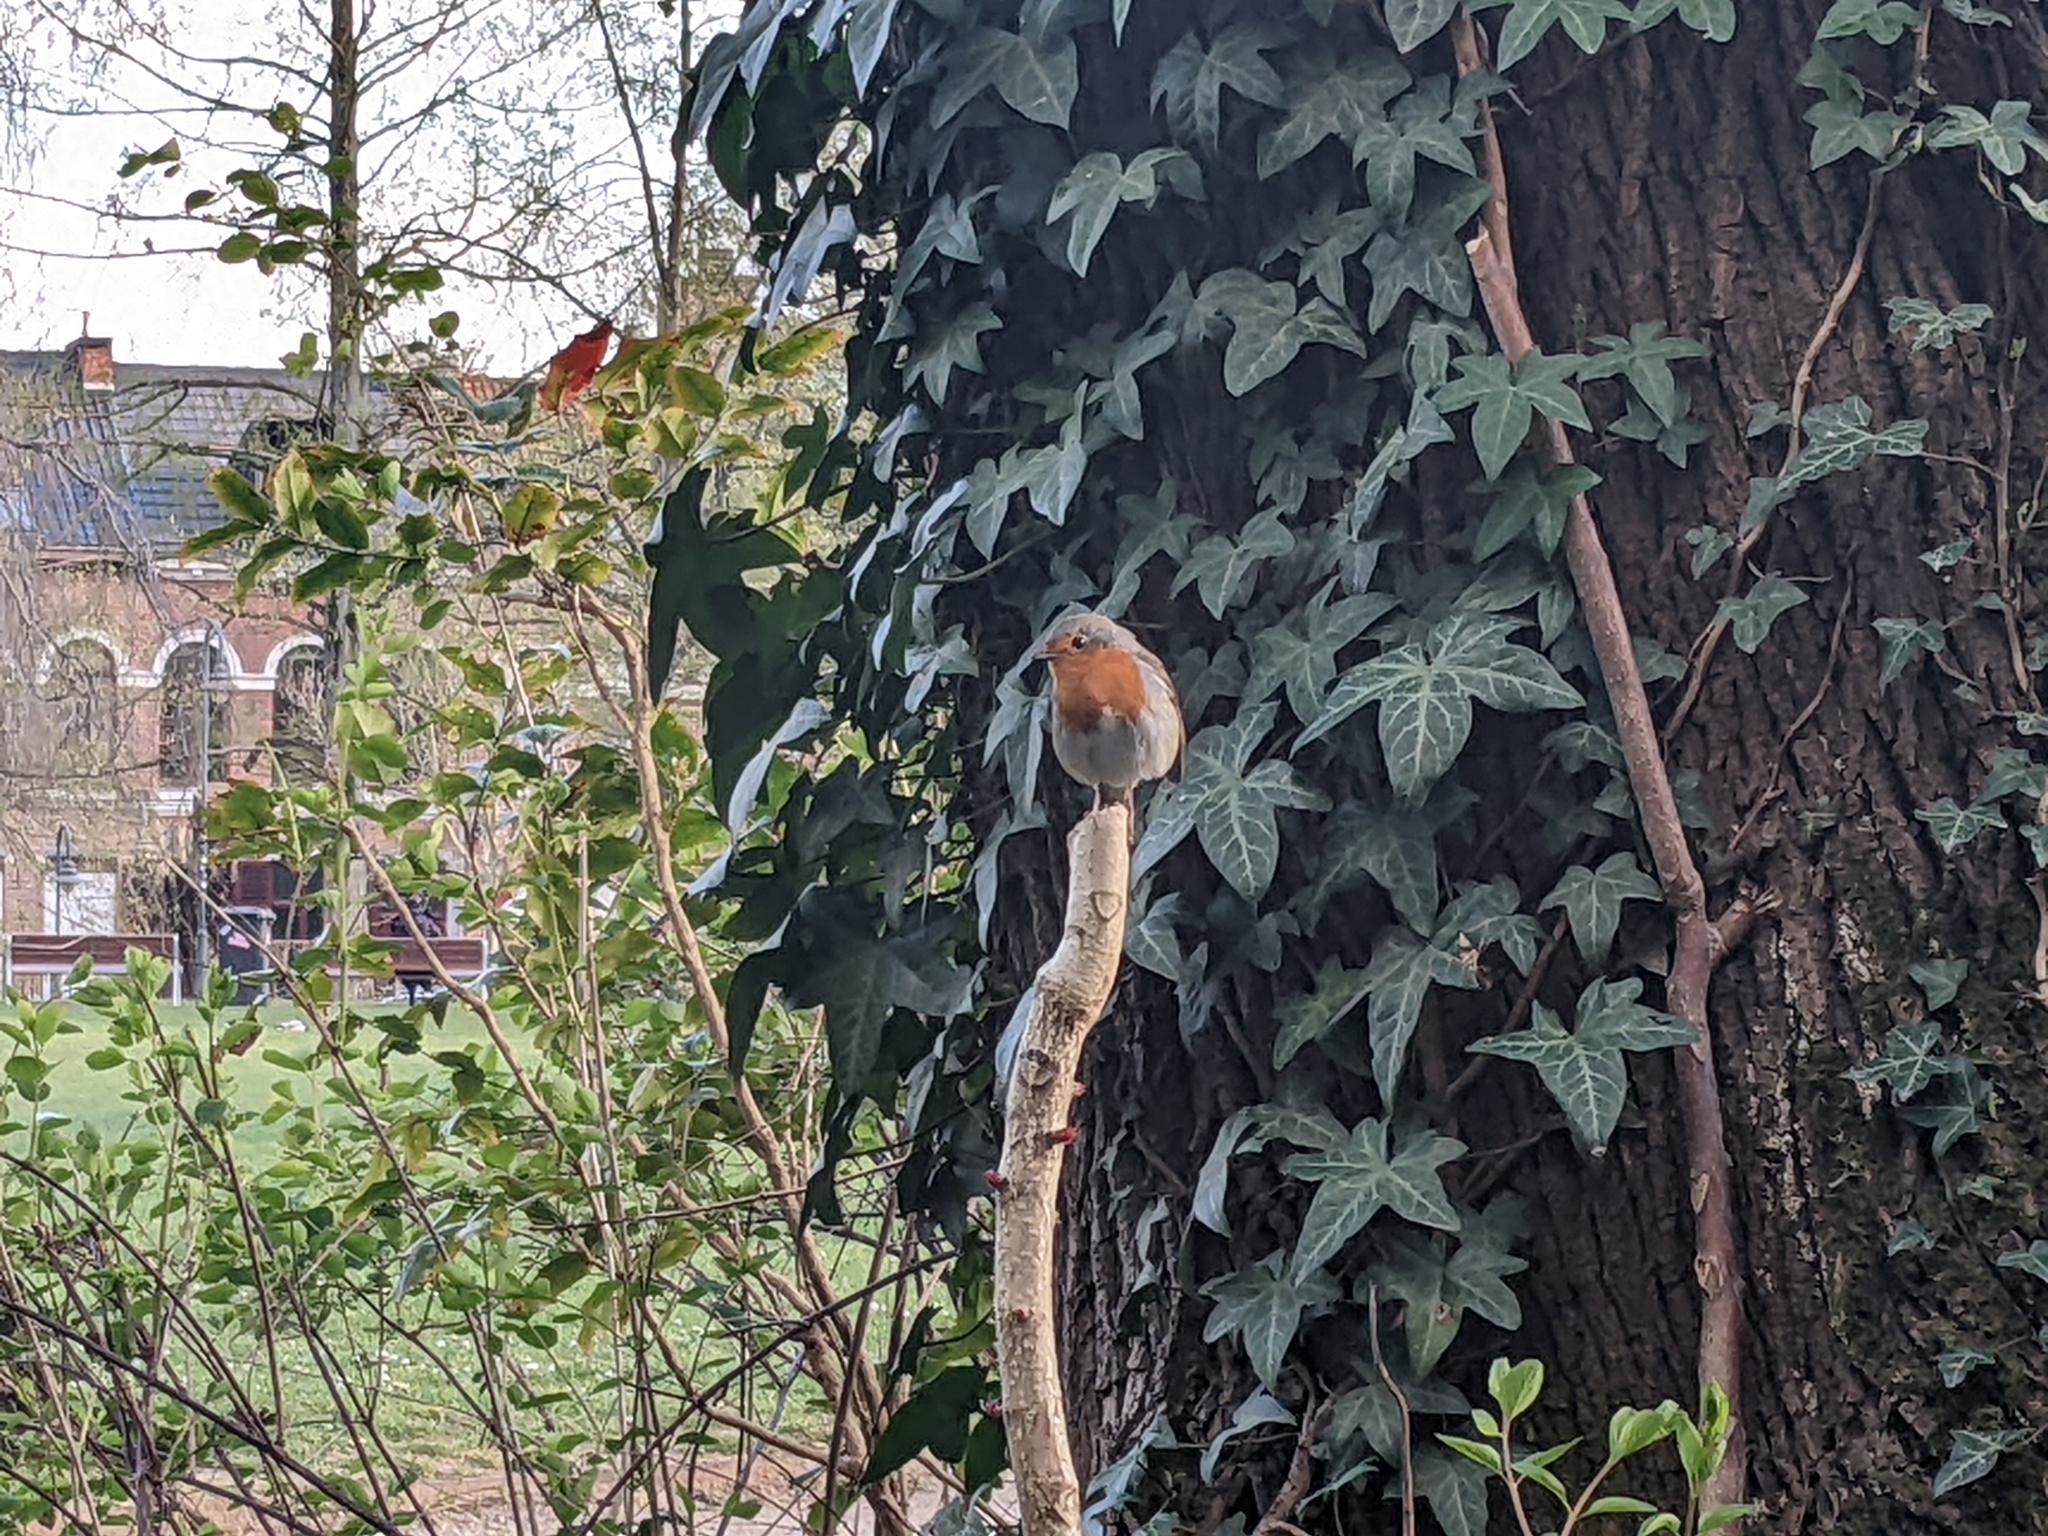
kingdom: Animalia
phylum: Chordata
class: Aves
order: Passeriformes
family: Muscicapidae
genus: Erithacus
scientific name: Erithacus rubecula
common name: European robin
